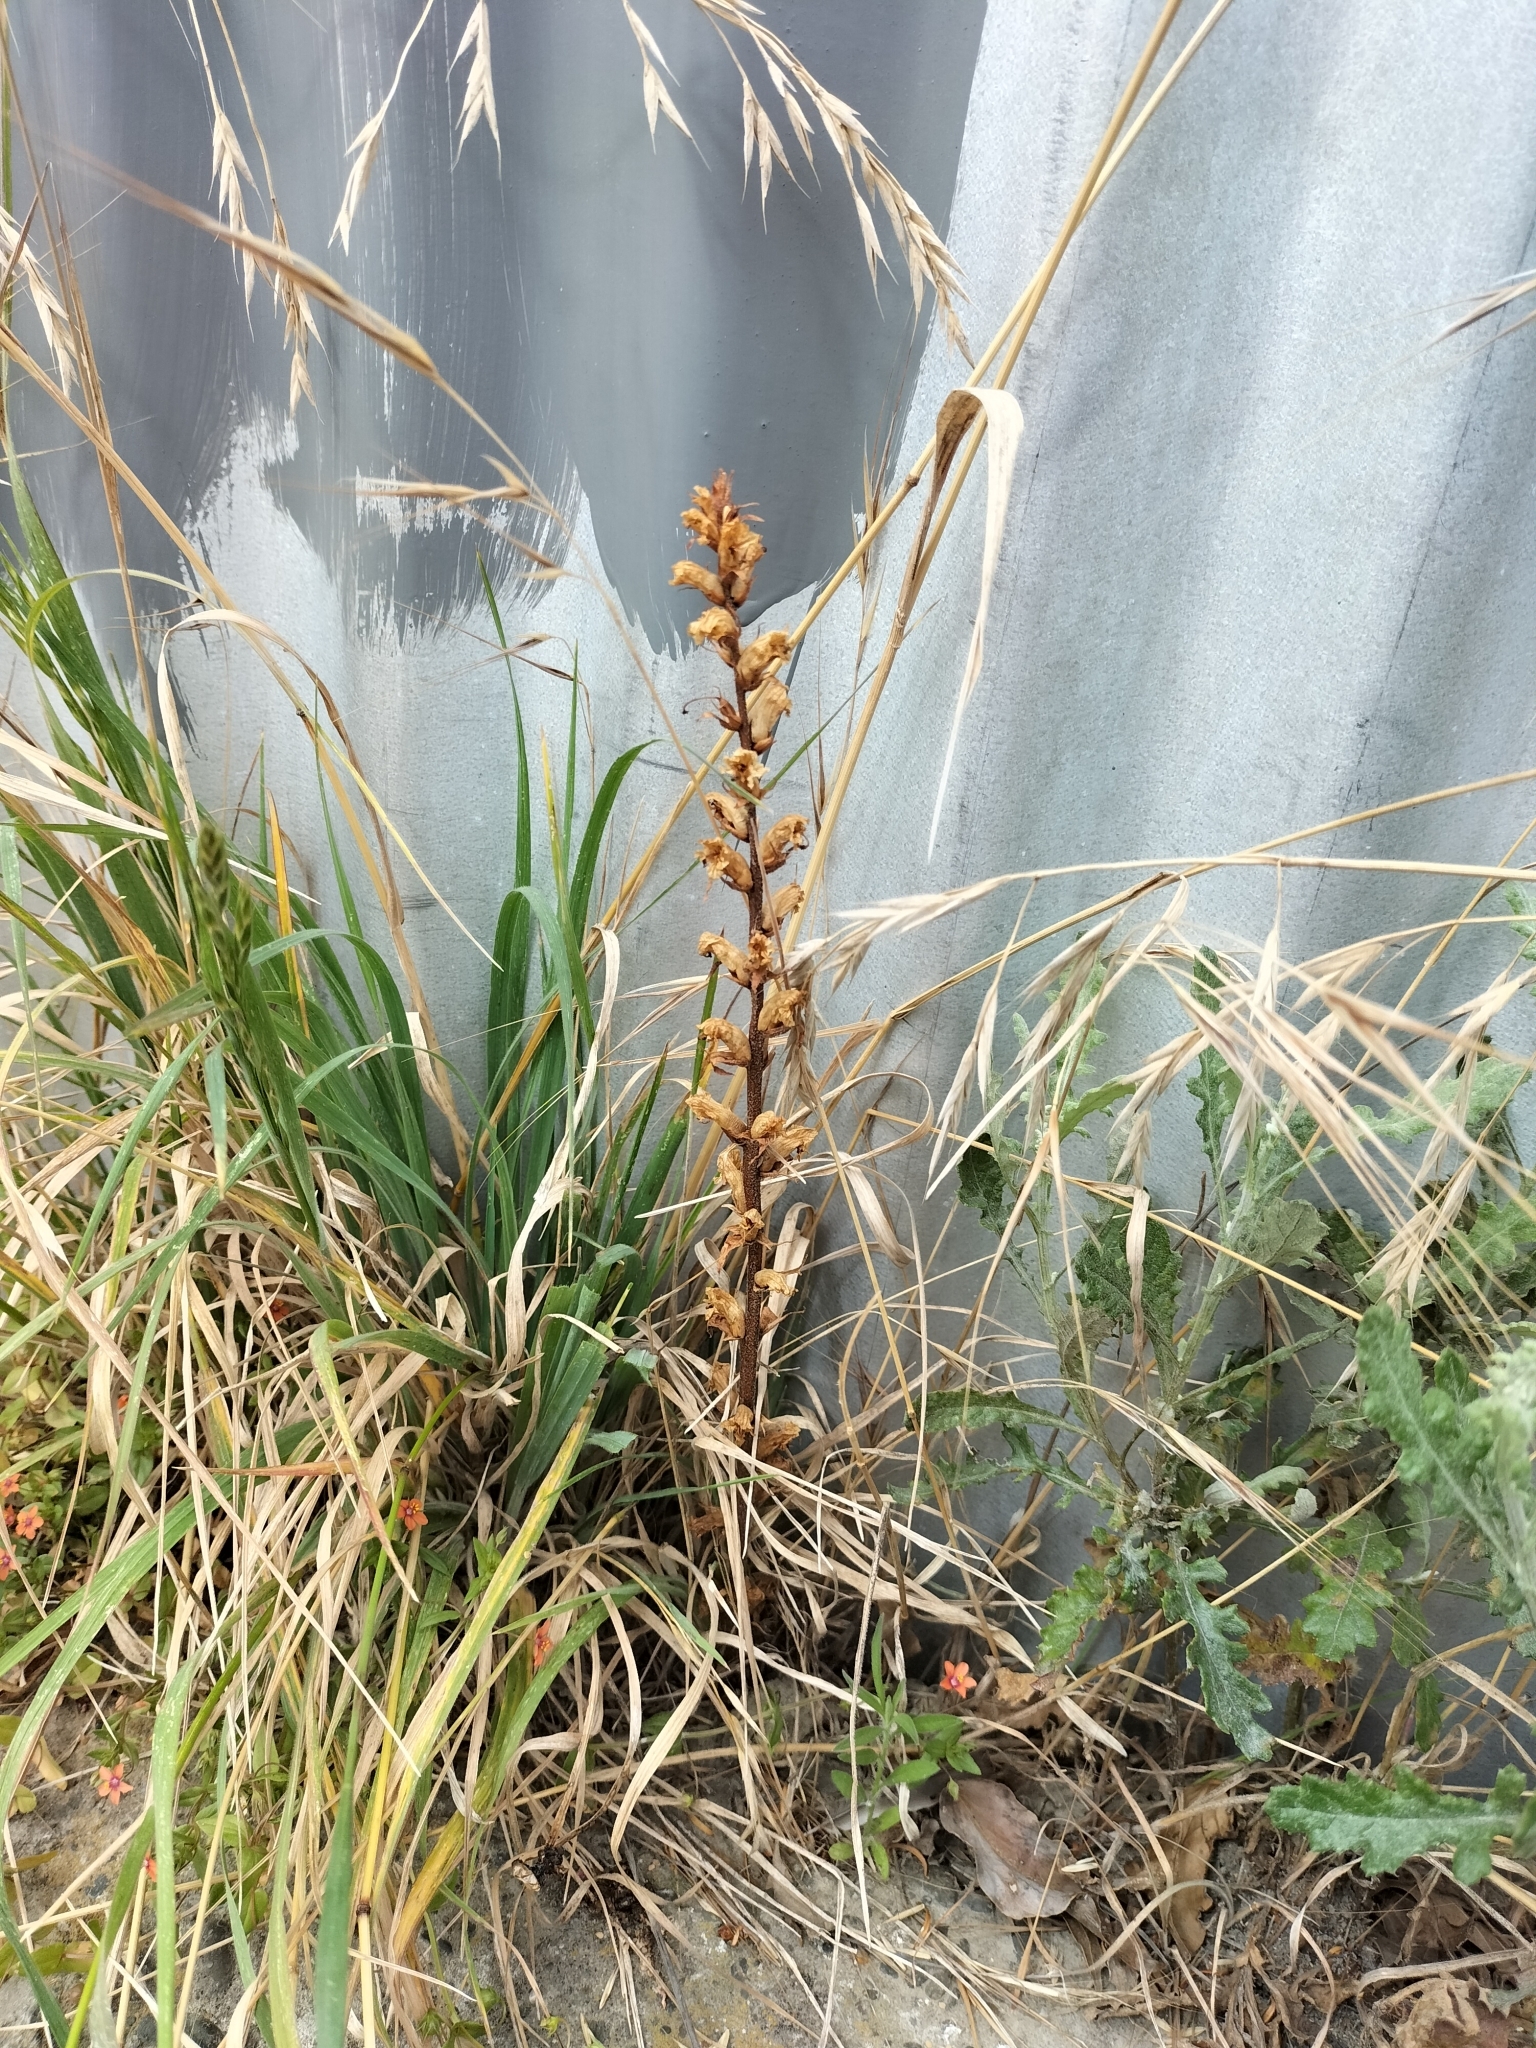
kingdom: Plantae
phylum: Tracheophyta
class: Magnoliopsida
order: Lamiales
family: Orobanchaceae
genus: Orobanche
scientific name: Orobanche minor
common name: Common broomrape
